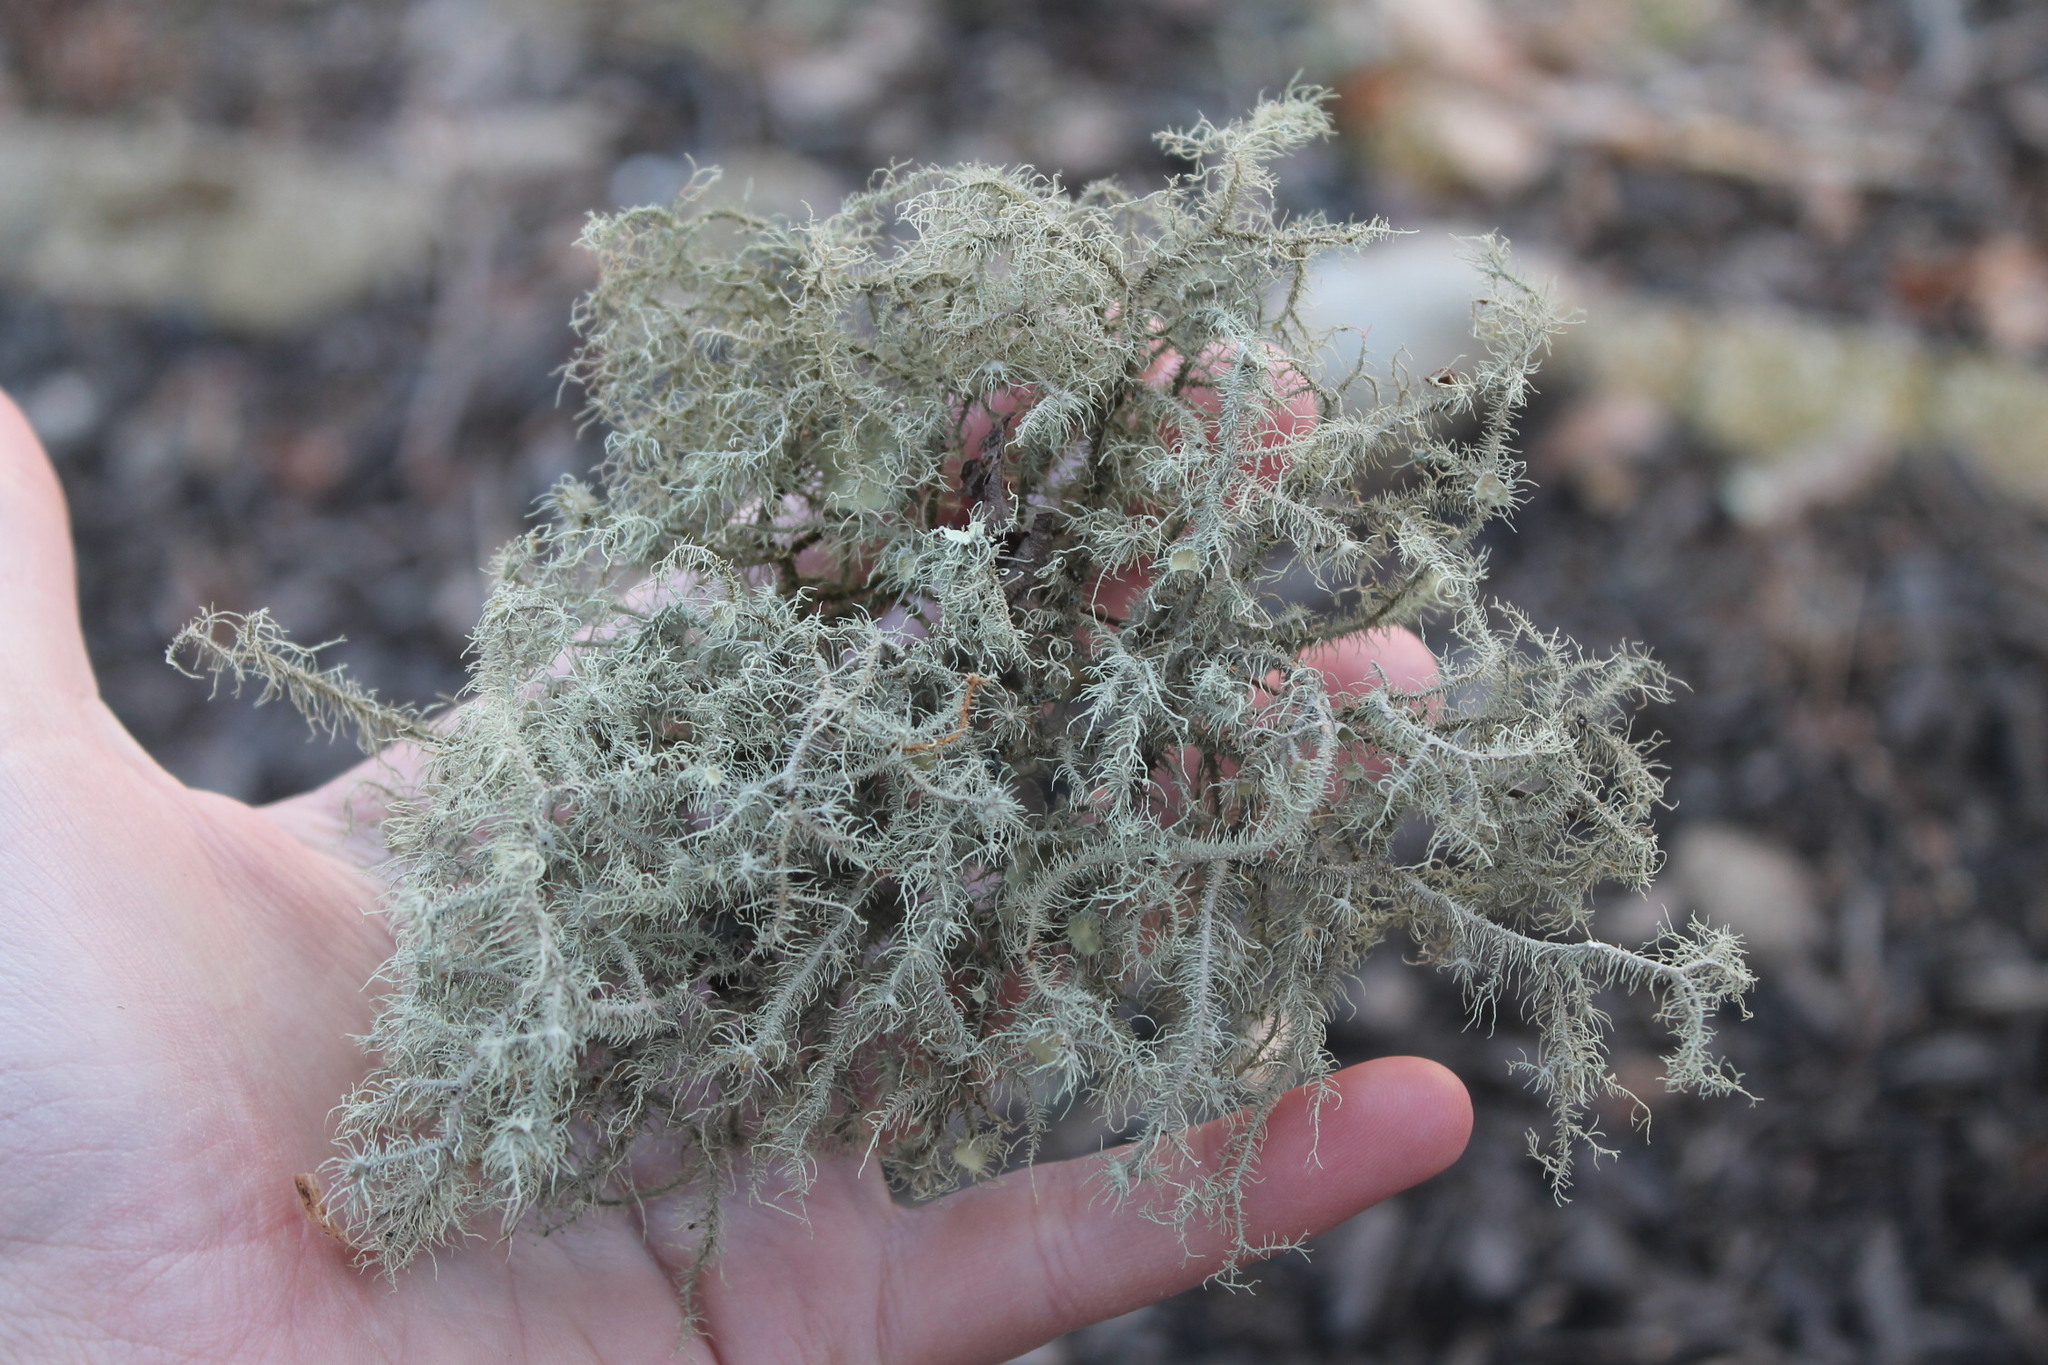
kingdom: Fungi
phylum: Ascomycota
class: Lecanoromycetes
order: Lecanorales
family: Parmeliaceae
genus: Usnea
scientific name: Usnea strigosa
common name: Bushy beard lichen
